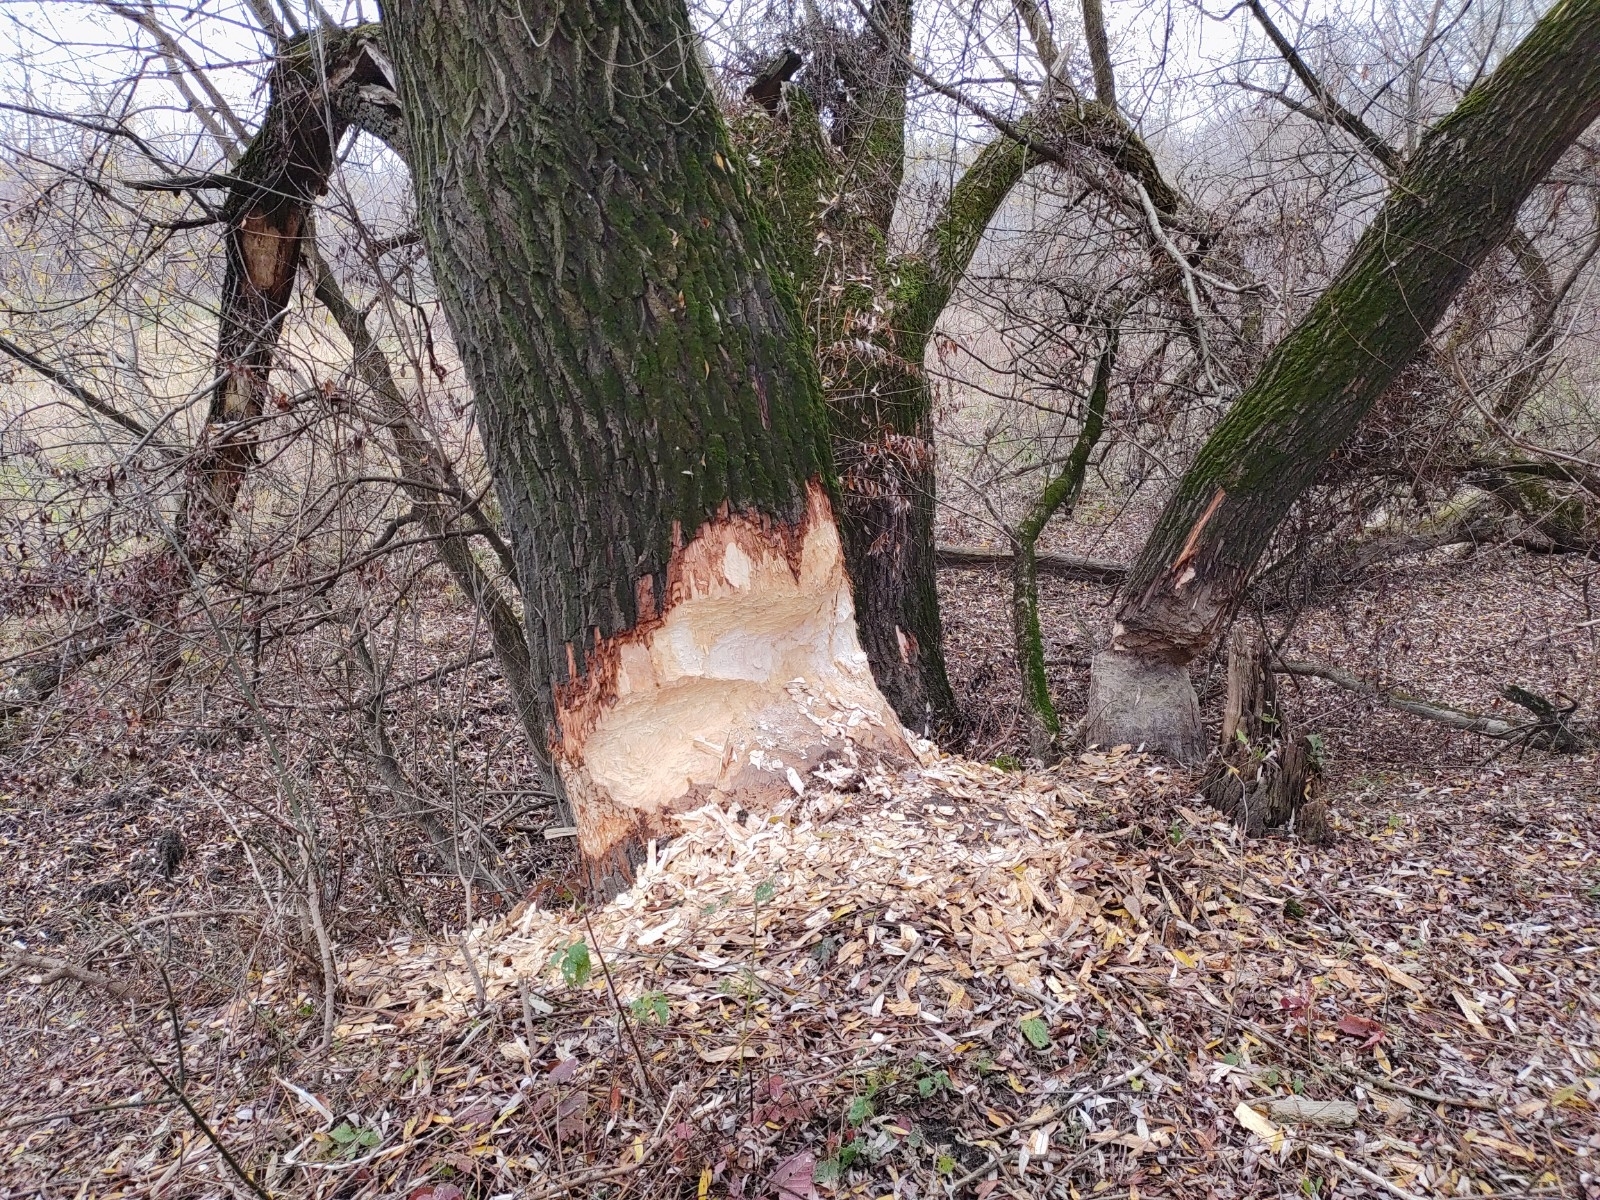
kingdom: Animalia
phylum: Chordata
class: Mammalia
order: Rodentia
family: Castoridae
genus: Castor
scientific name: Castor fiber
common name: Eurasian beaver
